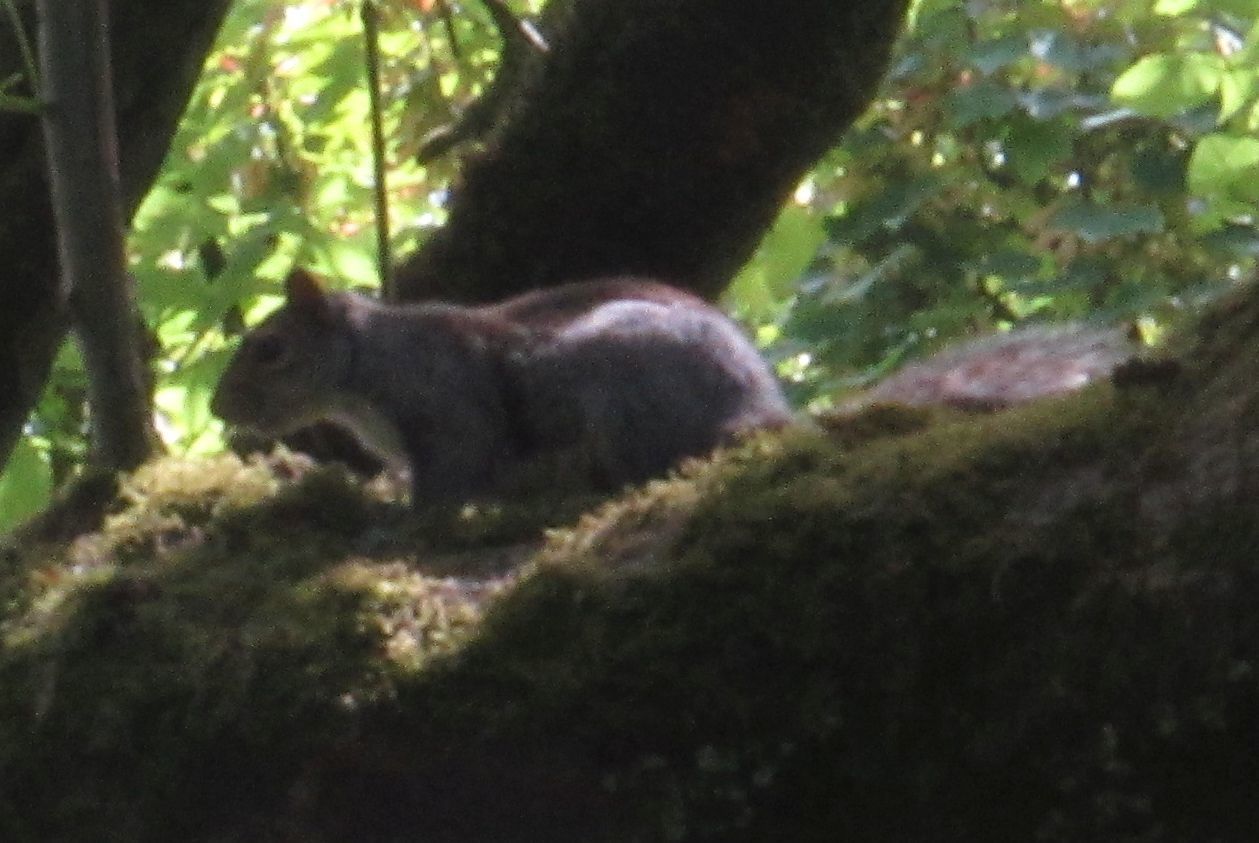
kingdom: Animalia
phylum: Chordata
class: Mammalia
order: Rodentia
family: Sciuridae
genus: Sciurus
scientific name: Sciurus carolinensis
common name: Eastern gray squirrel
